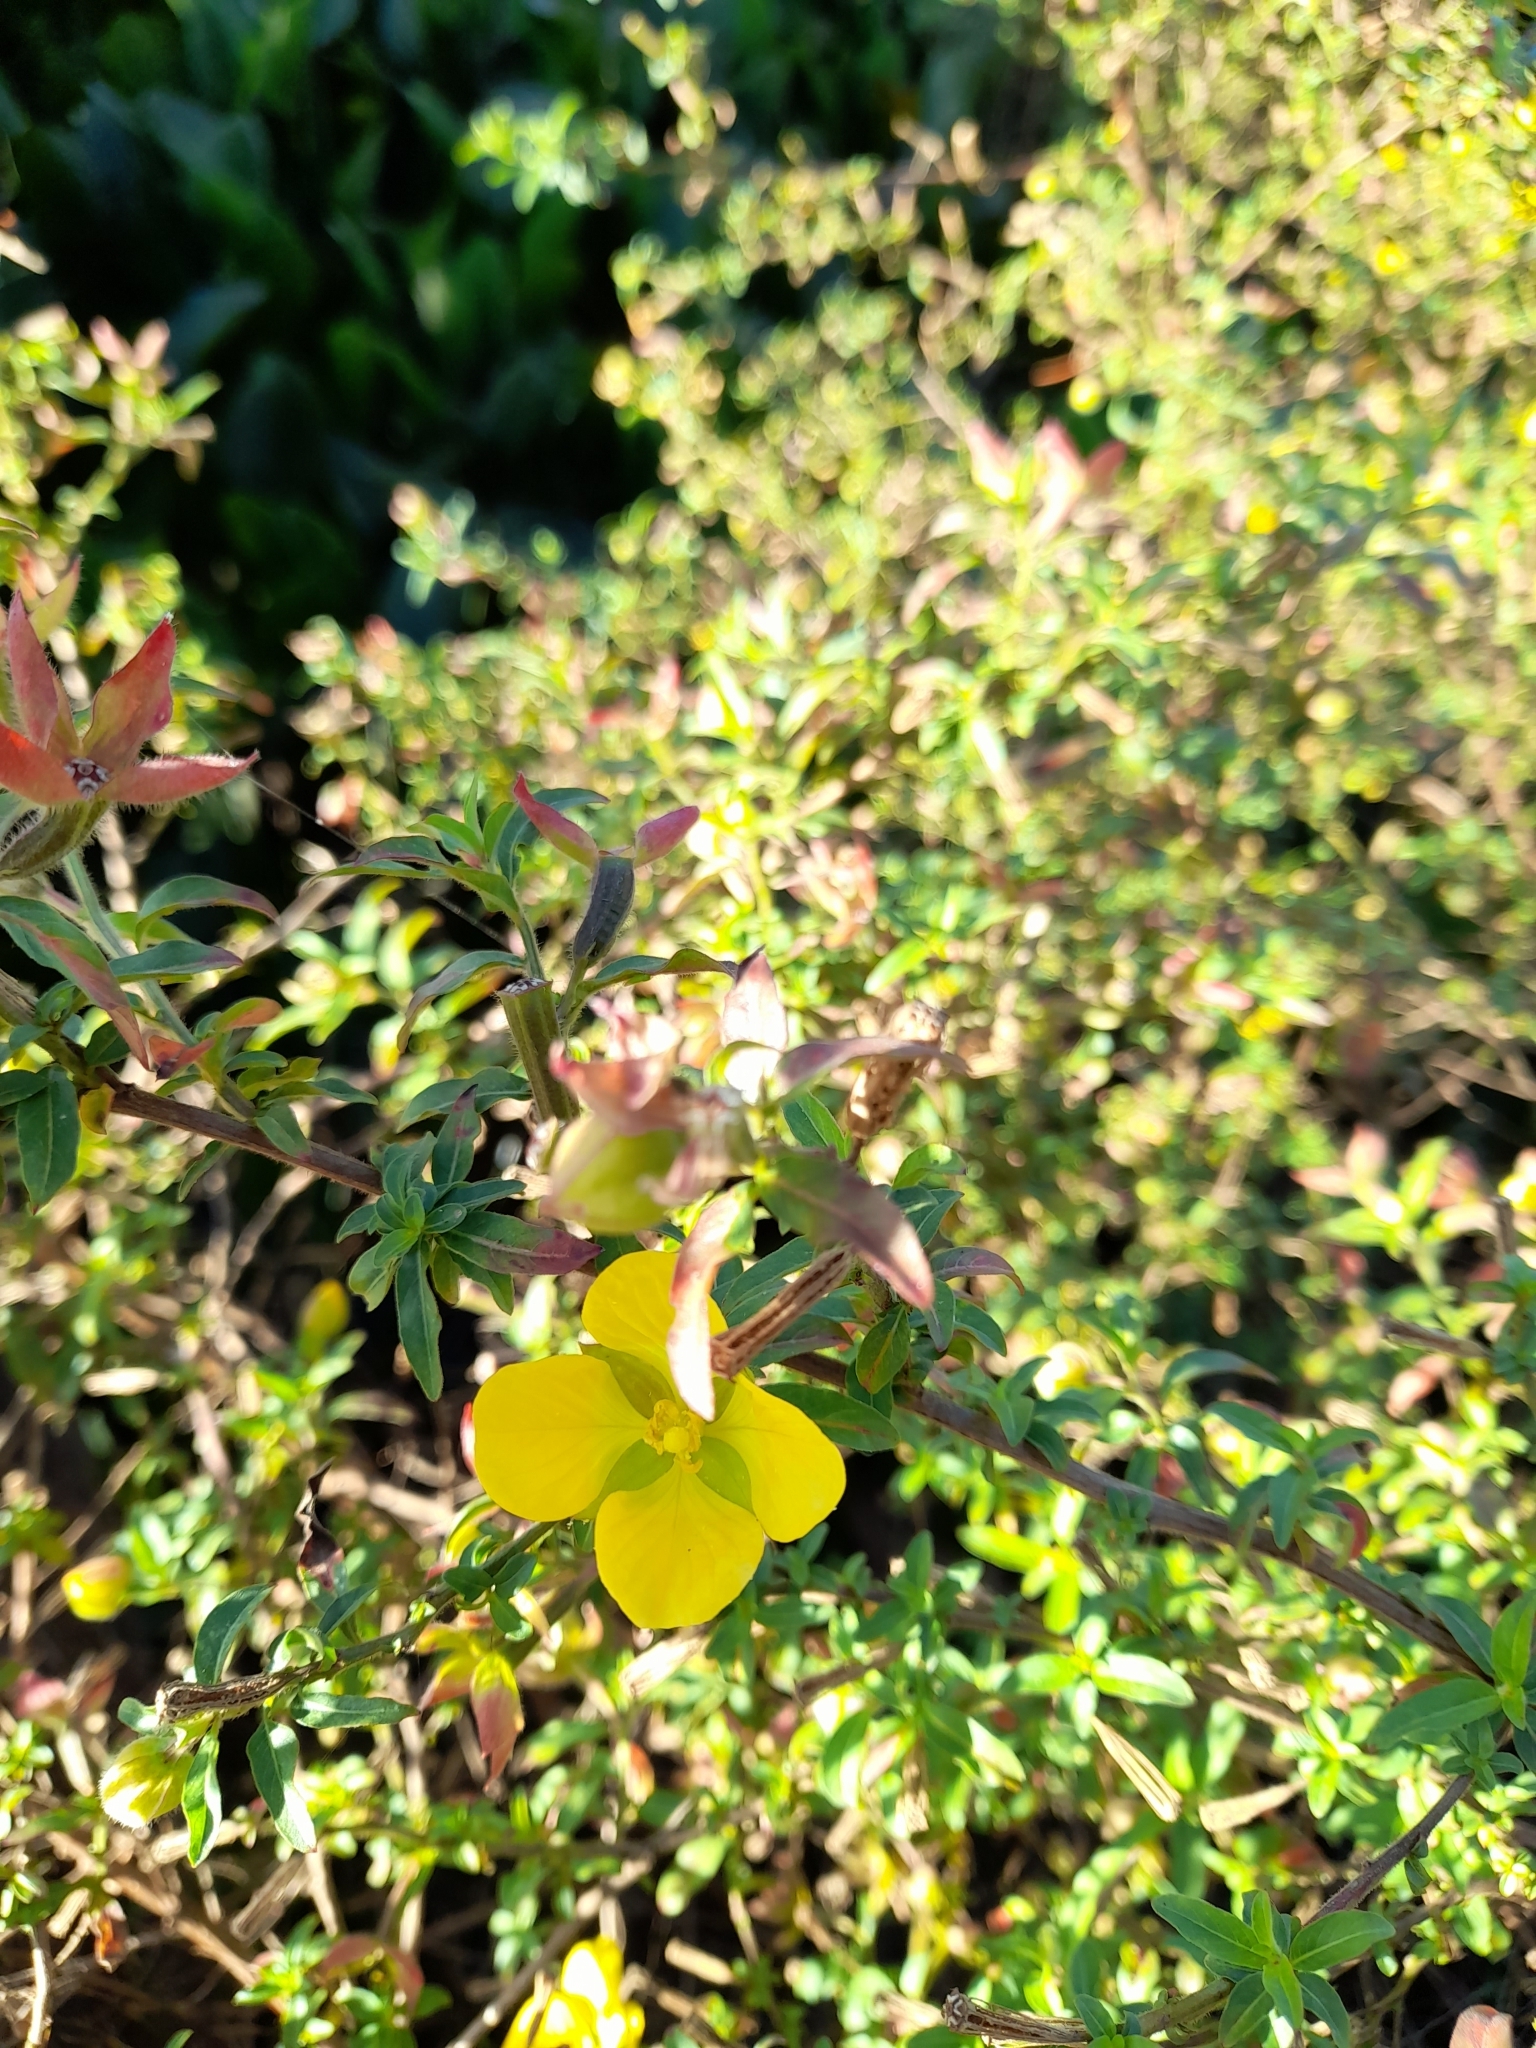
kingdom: Plantae
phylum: Tracheophyta
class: Magnoliopsida
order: Myrtales
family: Onagraceae
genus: Ludwigia
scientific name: Ludwigia octovalvis
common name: Water-primrose
